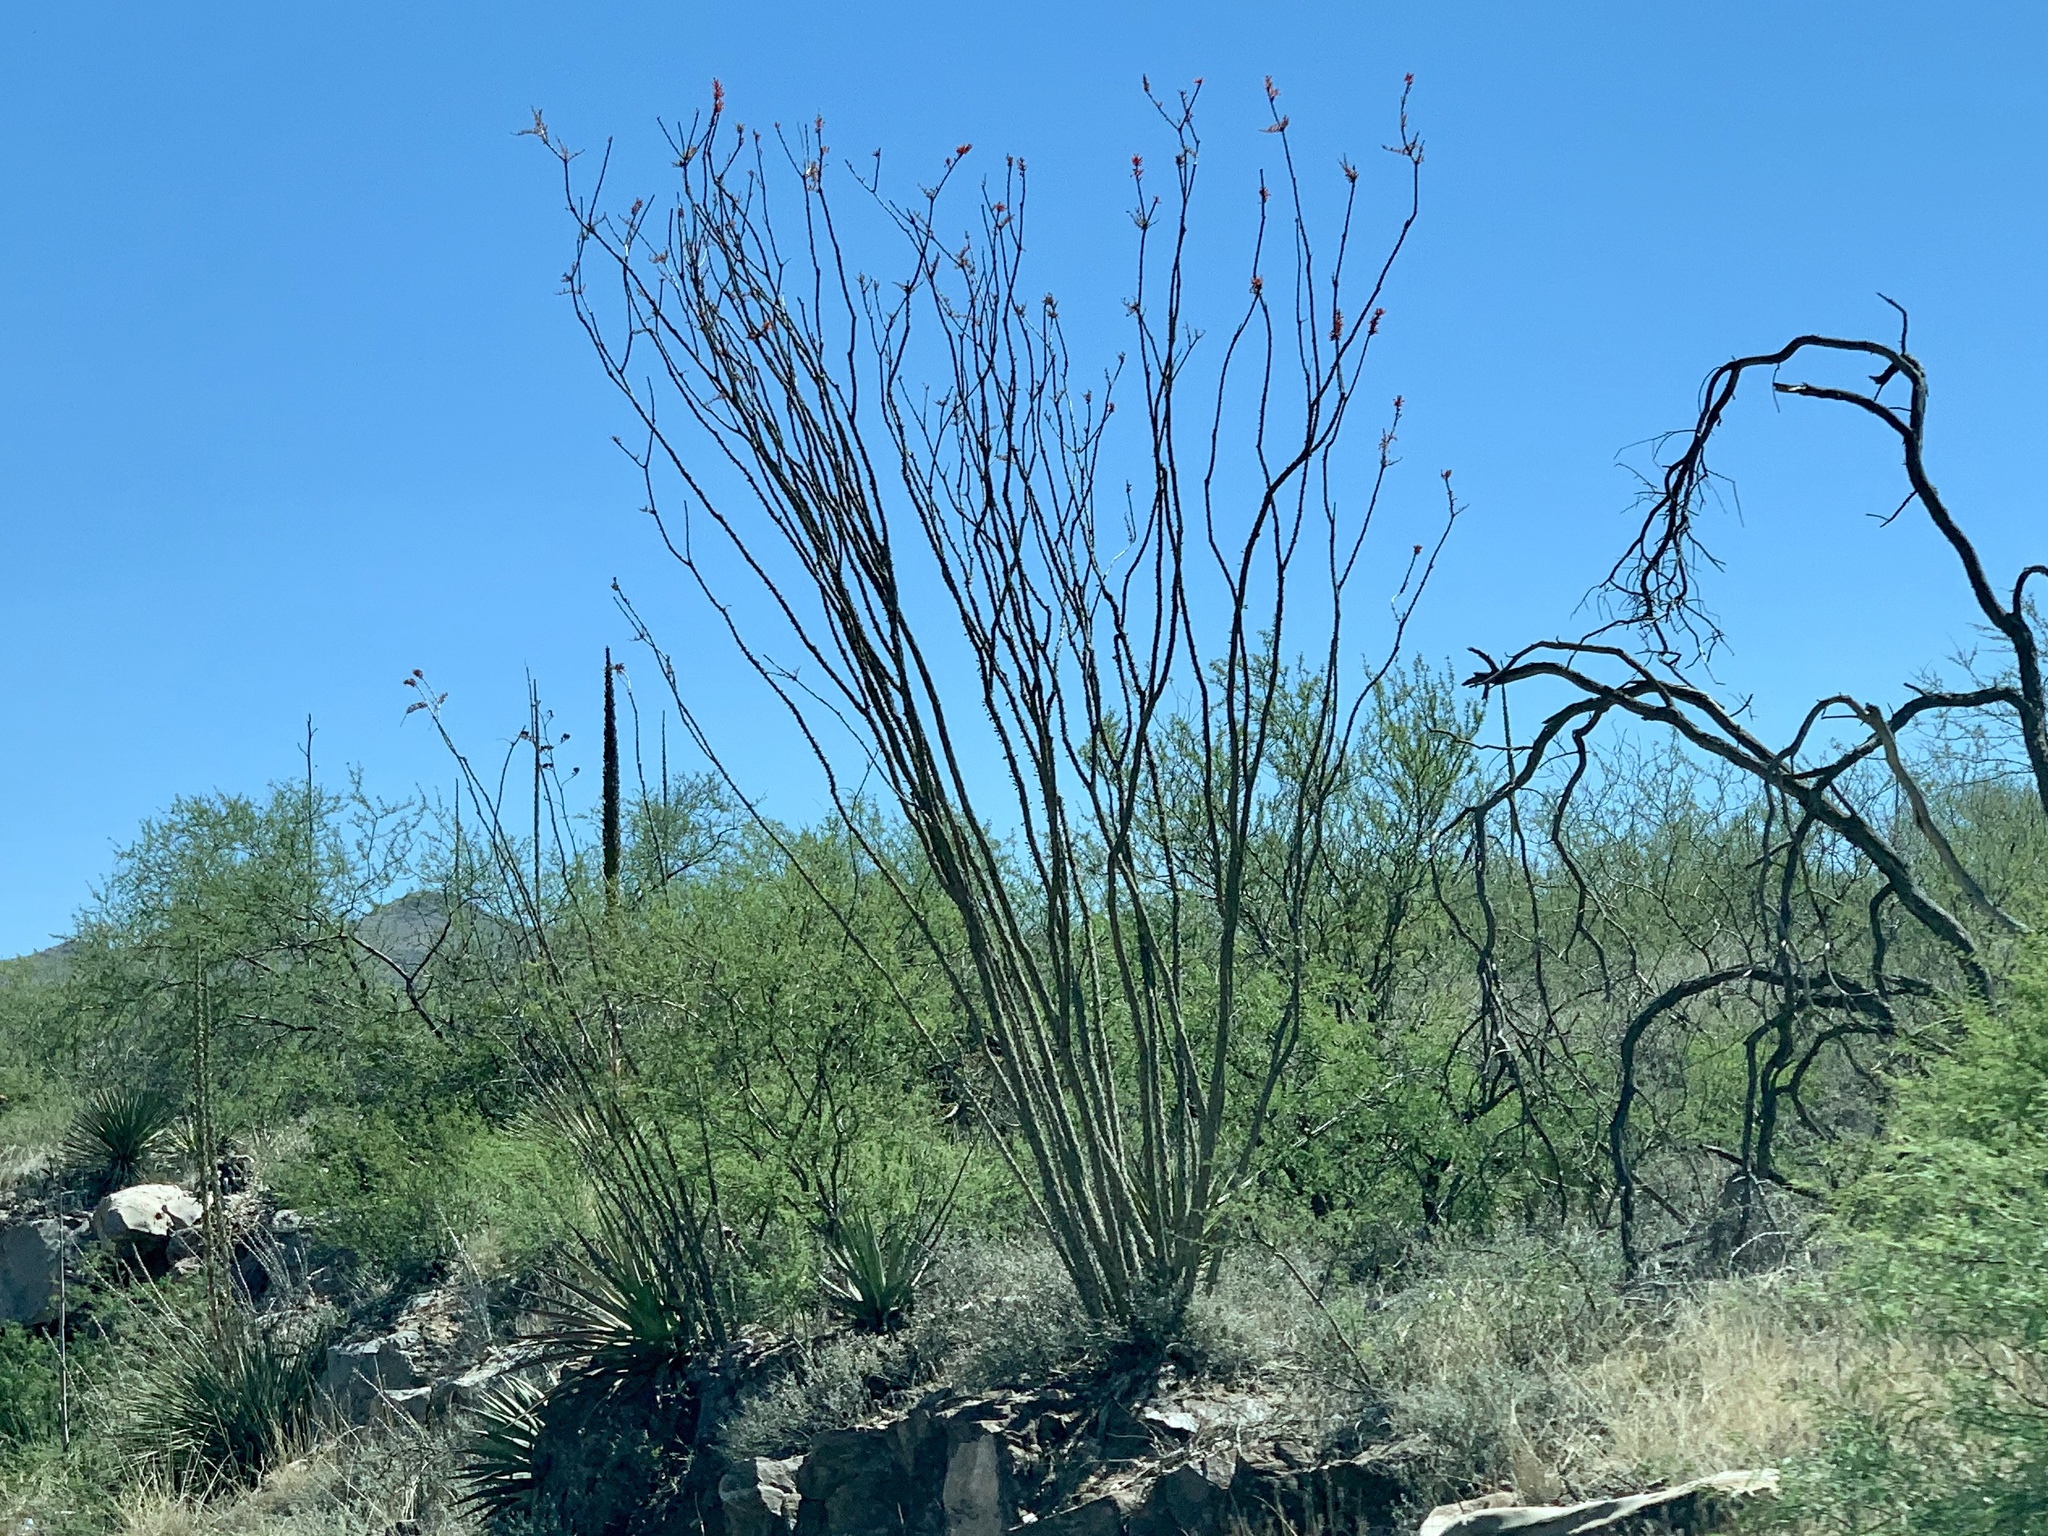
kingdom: Plantae
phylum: Tracheophyta
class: Magnoliopsida
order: Ericales
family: Fouquieriaceae
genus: Fouquieria
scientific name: Fouquieria splendens
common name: Vine-cactus
